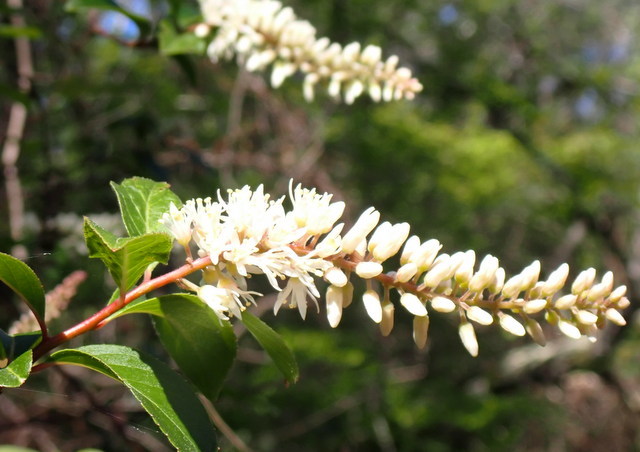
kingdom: Plantae
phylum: Tracheophyta
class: Magnoliopsida
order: Saxifragales
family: Iteaceae
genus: Itea
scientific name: Itea virginica
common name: Sweetspire
